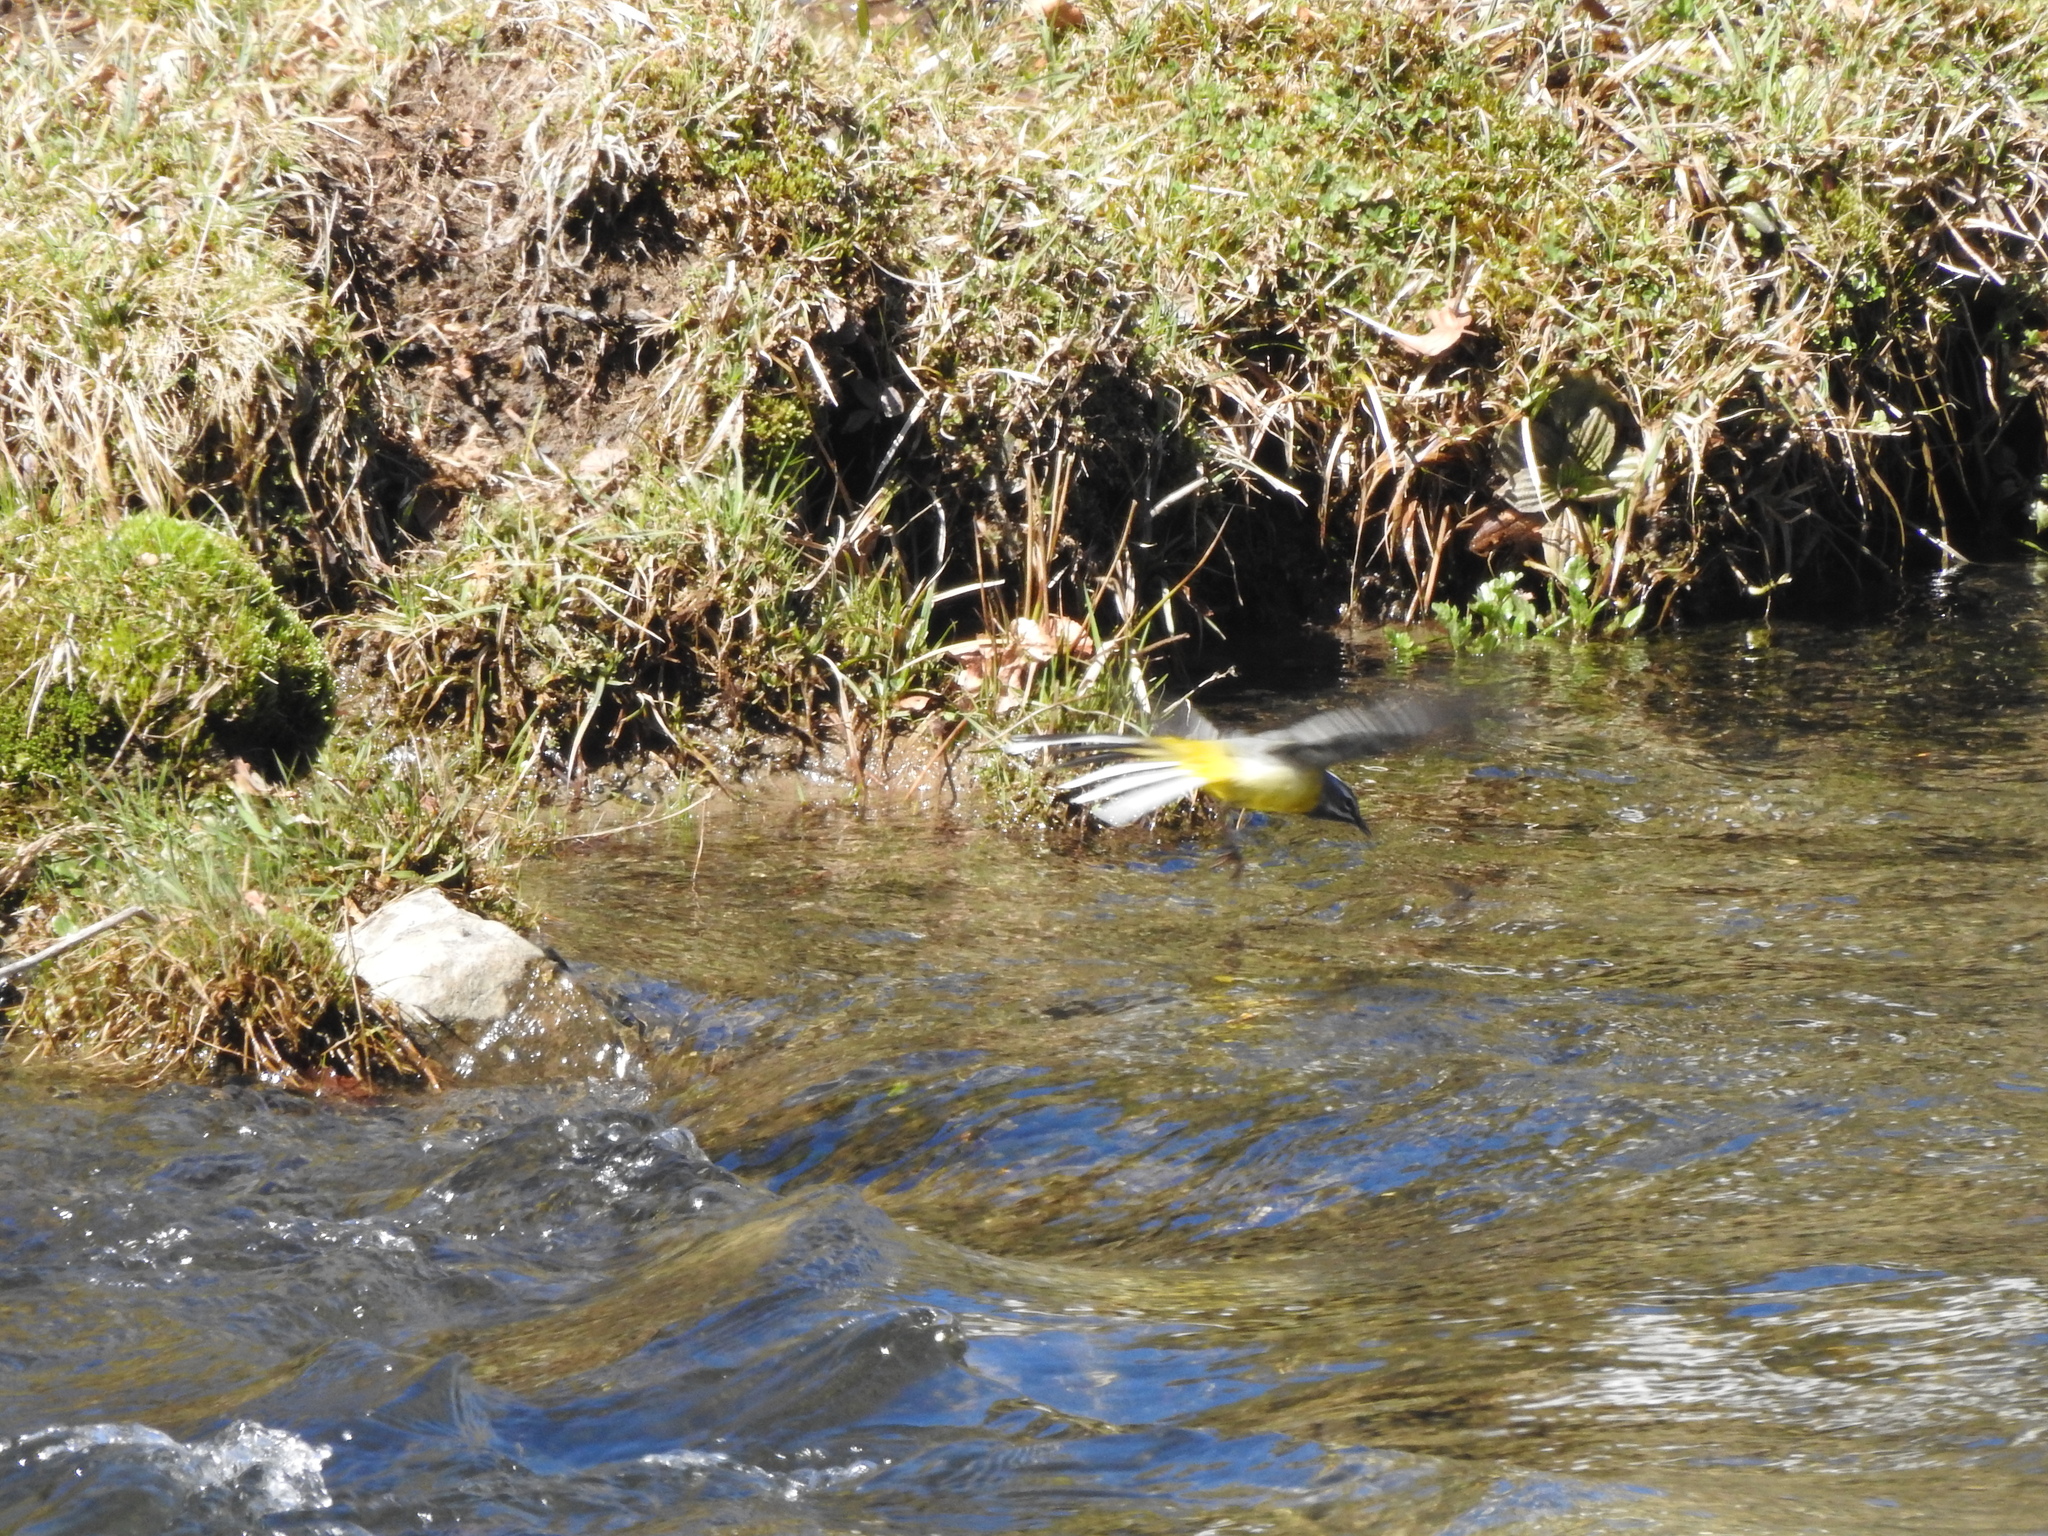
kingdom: Animalia
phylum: Chordata
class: Aves
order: Passeriformes
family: Motacillidae
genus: Motacilla
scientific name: Motacilla cinerea
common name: Grey wagtail
